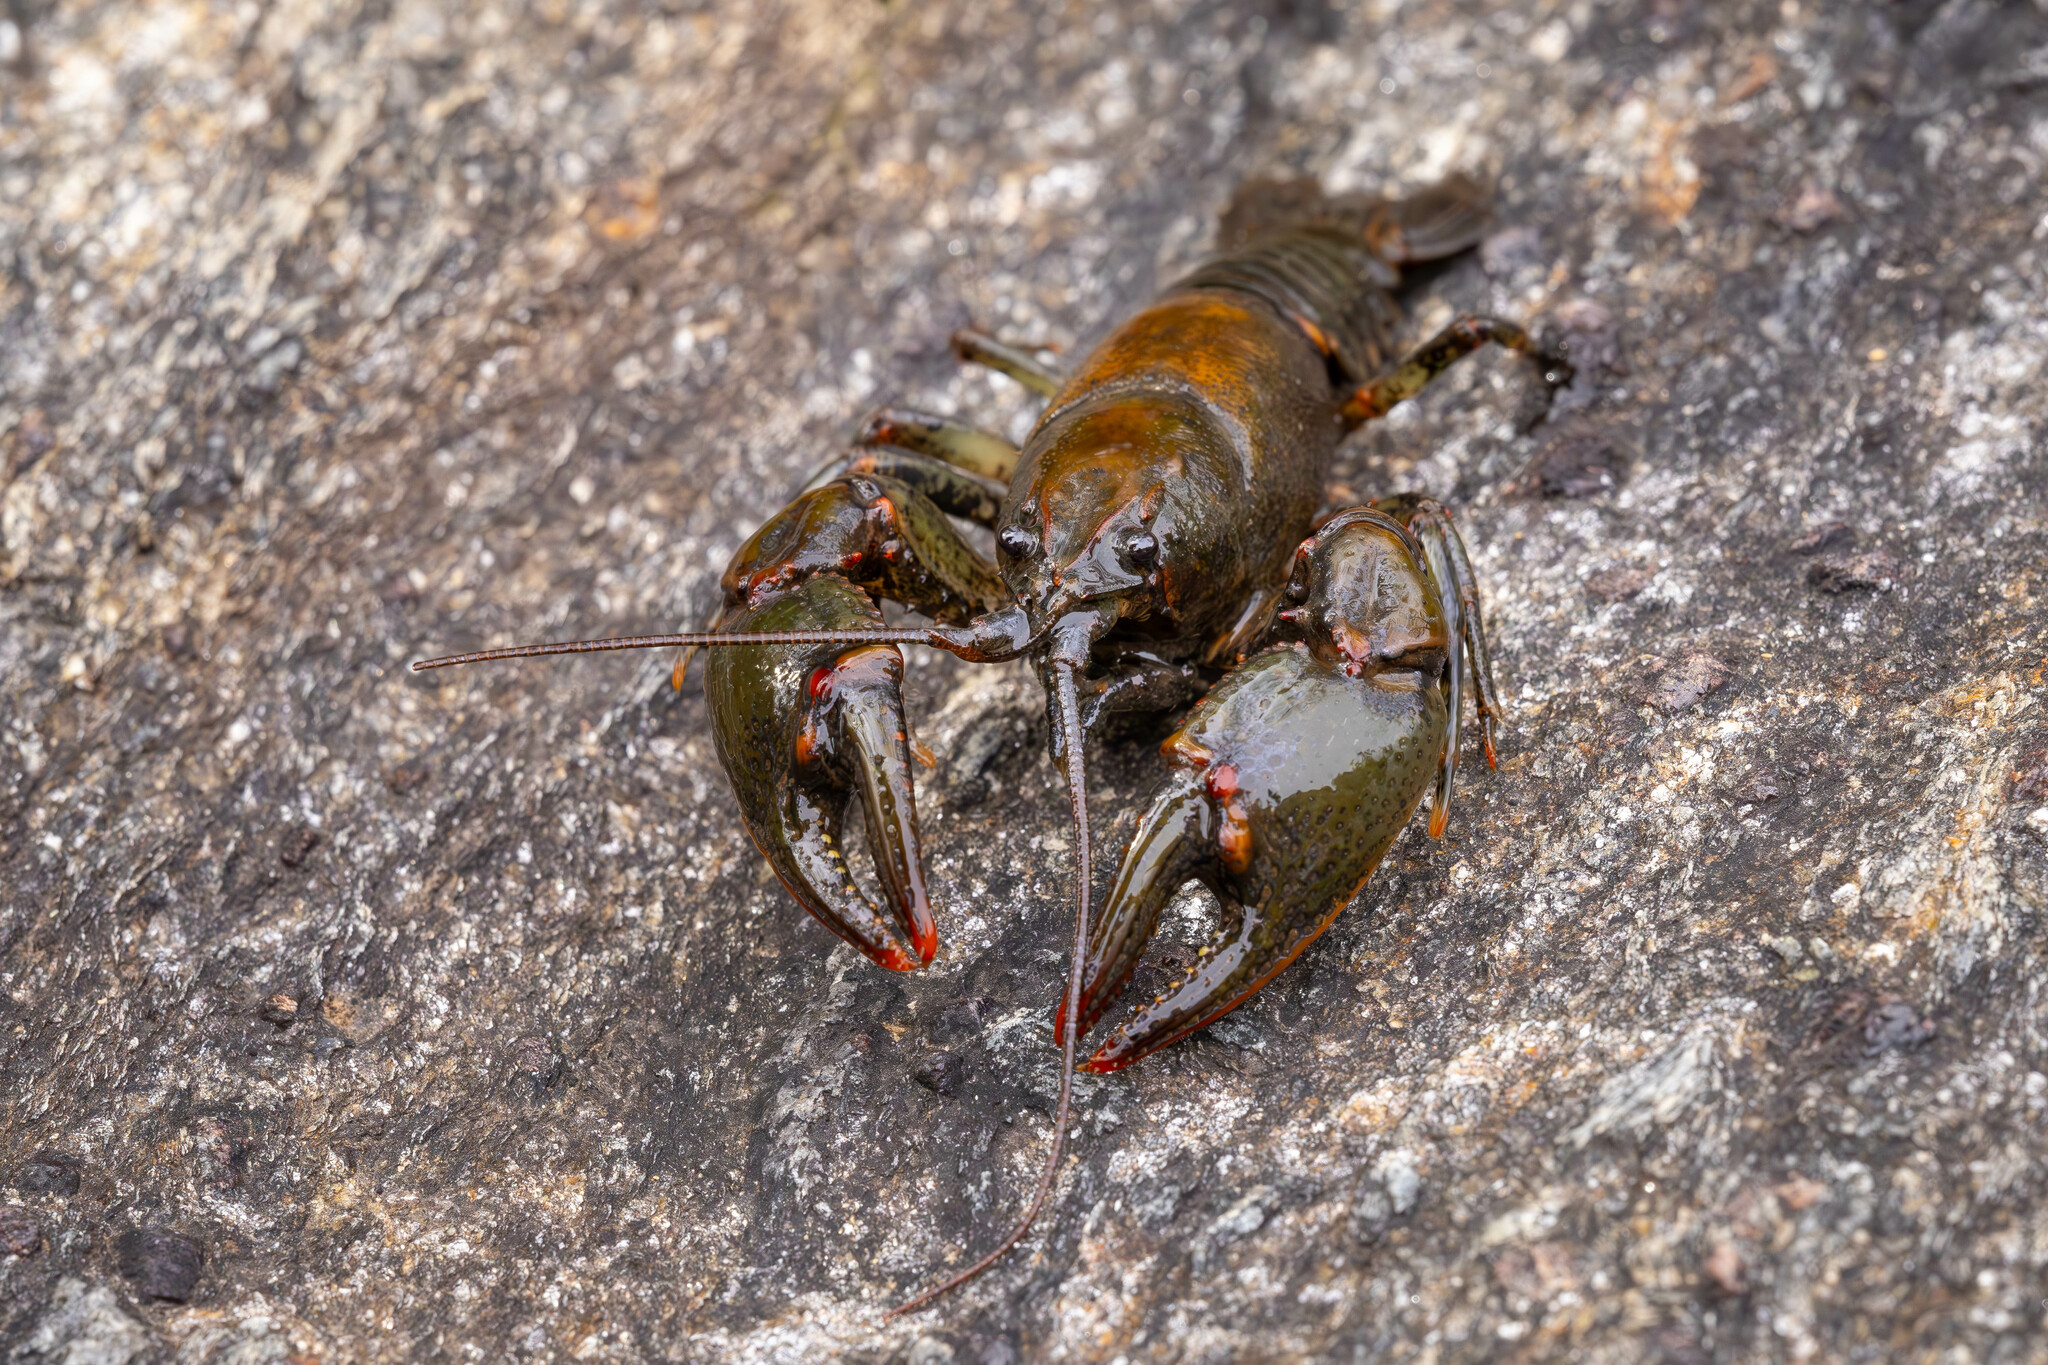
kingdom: Animalia
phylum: Arthropoda
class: Malacostraca
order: Decapoda
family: Cambaridae
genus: Cambarus
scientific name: Cambarus howardi
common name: Chattahoochee crayfish
